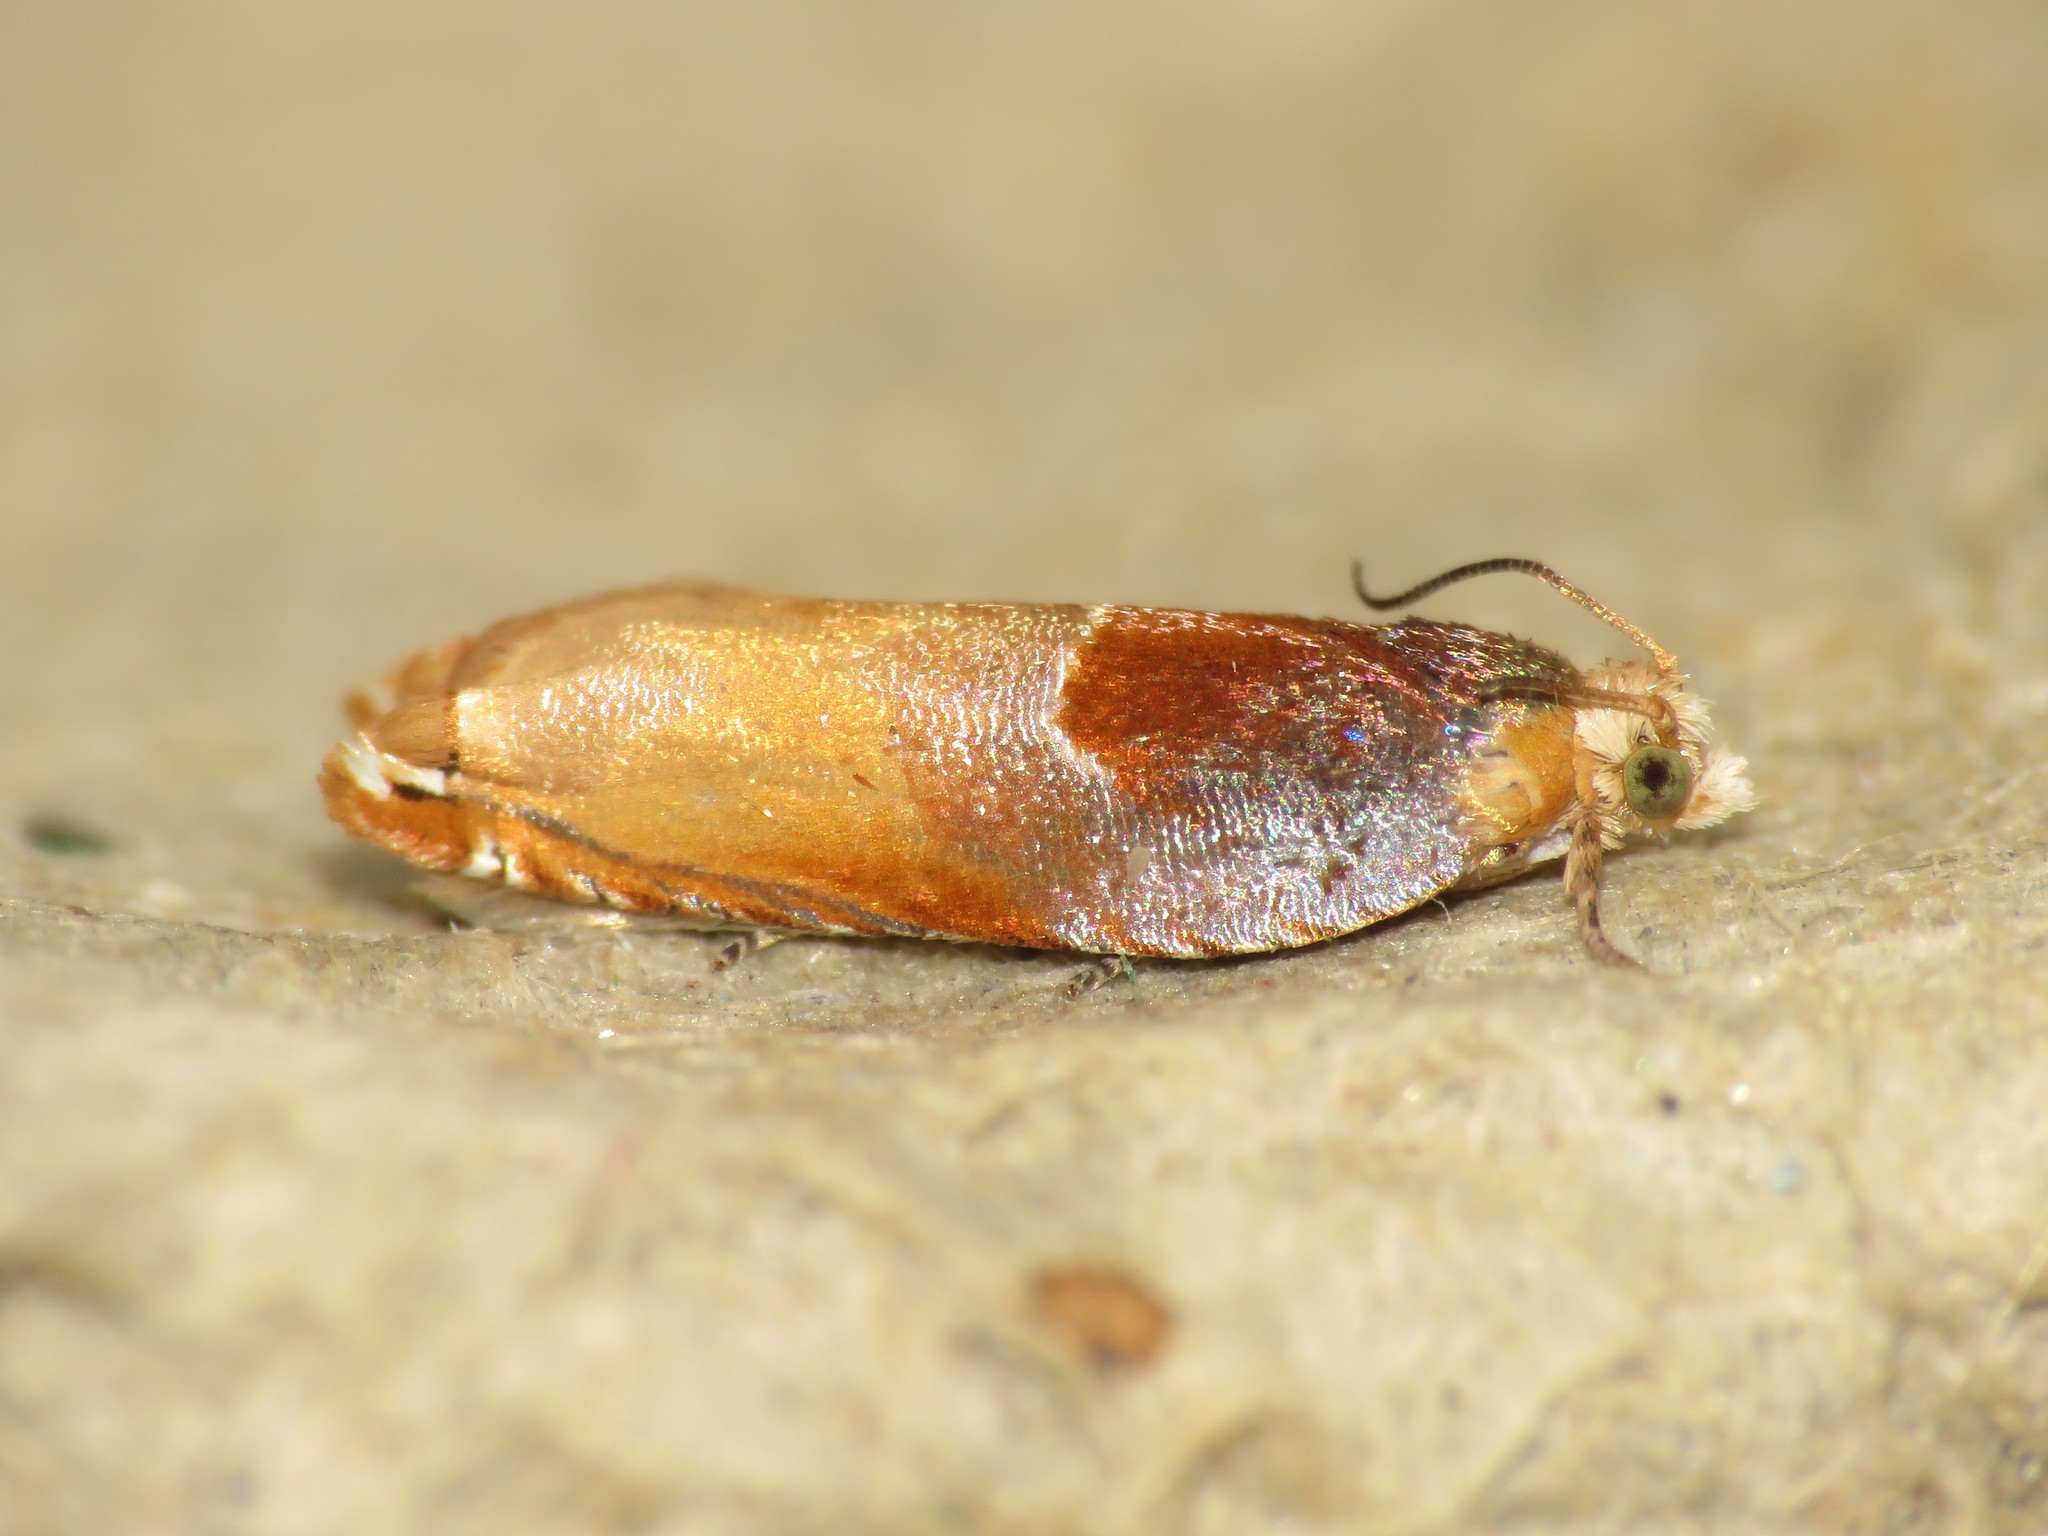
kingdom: Animalia
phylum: Arthropoda
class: Insecta
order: Lepidoptera
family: Tortricidae
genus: Ancylis
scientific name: Ancylis divisana
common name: Two-toned ancylis moth
